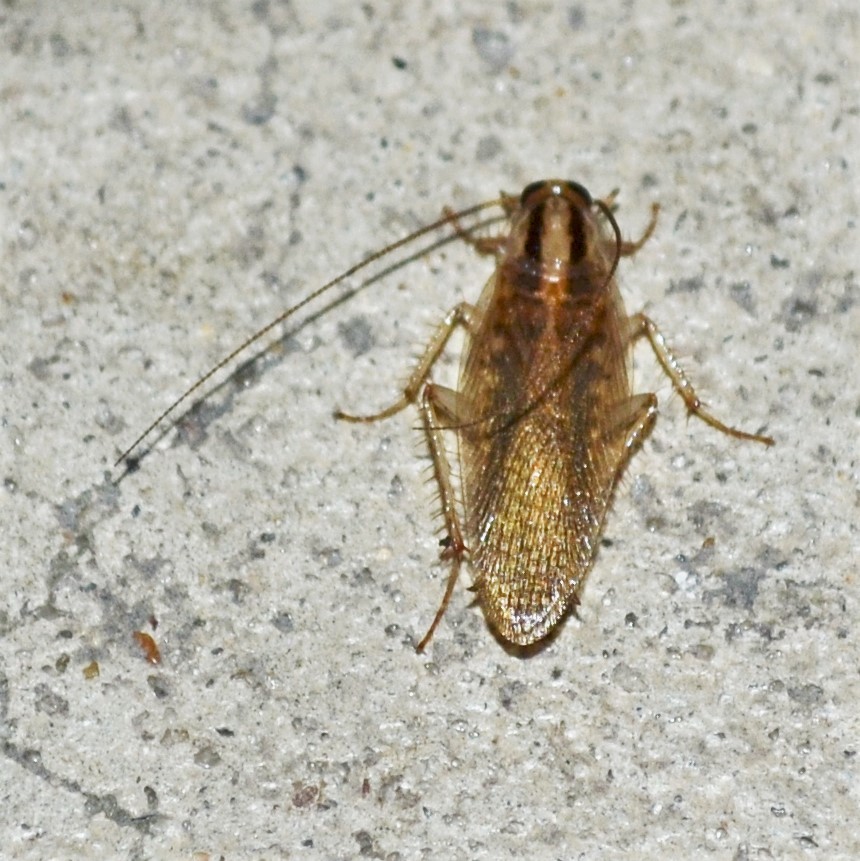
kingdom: Animalia
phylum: Arthropoda
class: Insecta
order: Blattodea
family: Ectobiidae
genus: Blattella
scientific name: Blattella asahinai
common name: Asian cockroach
